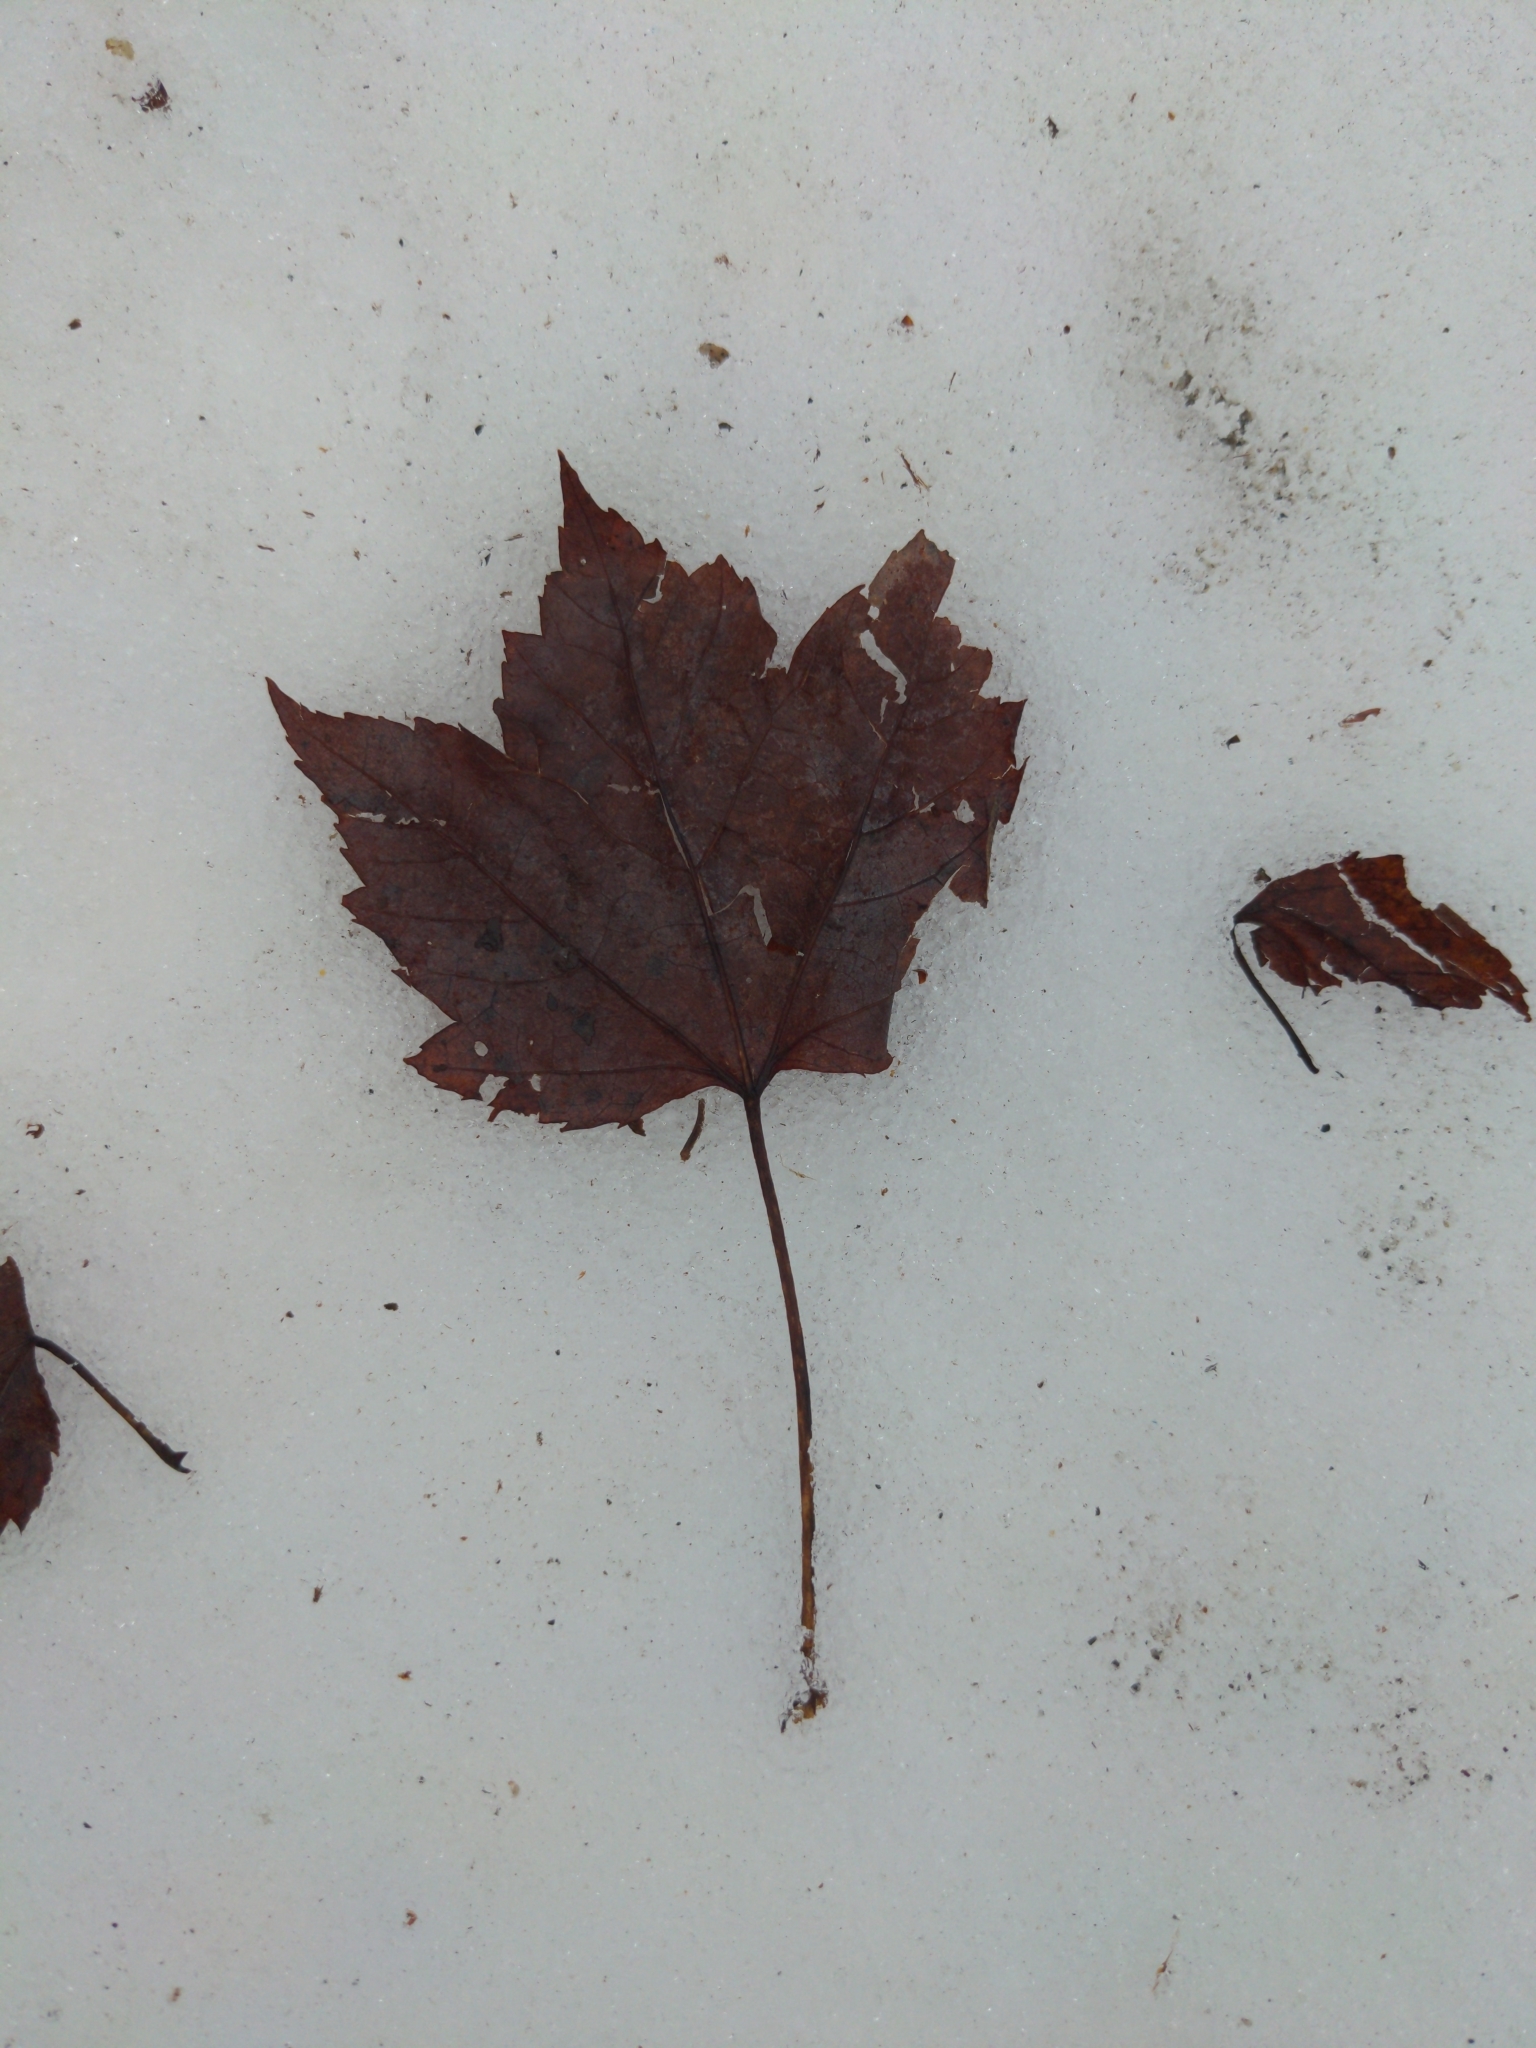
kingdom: Plantae
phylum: Tracheophyta
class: Magnoliopsida
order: Sapindales
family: Sapindaceae
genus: Acer
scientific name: Acer rubrum
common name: Red maple
